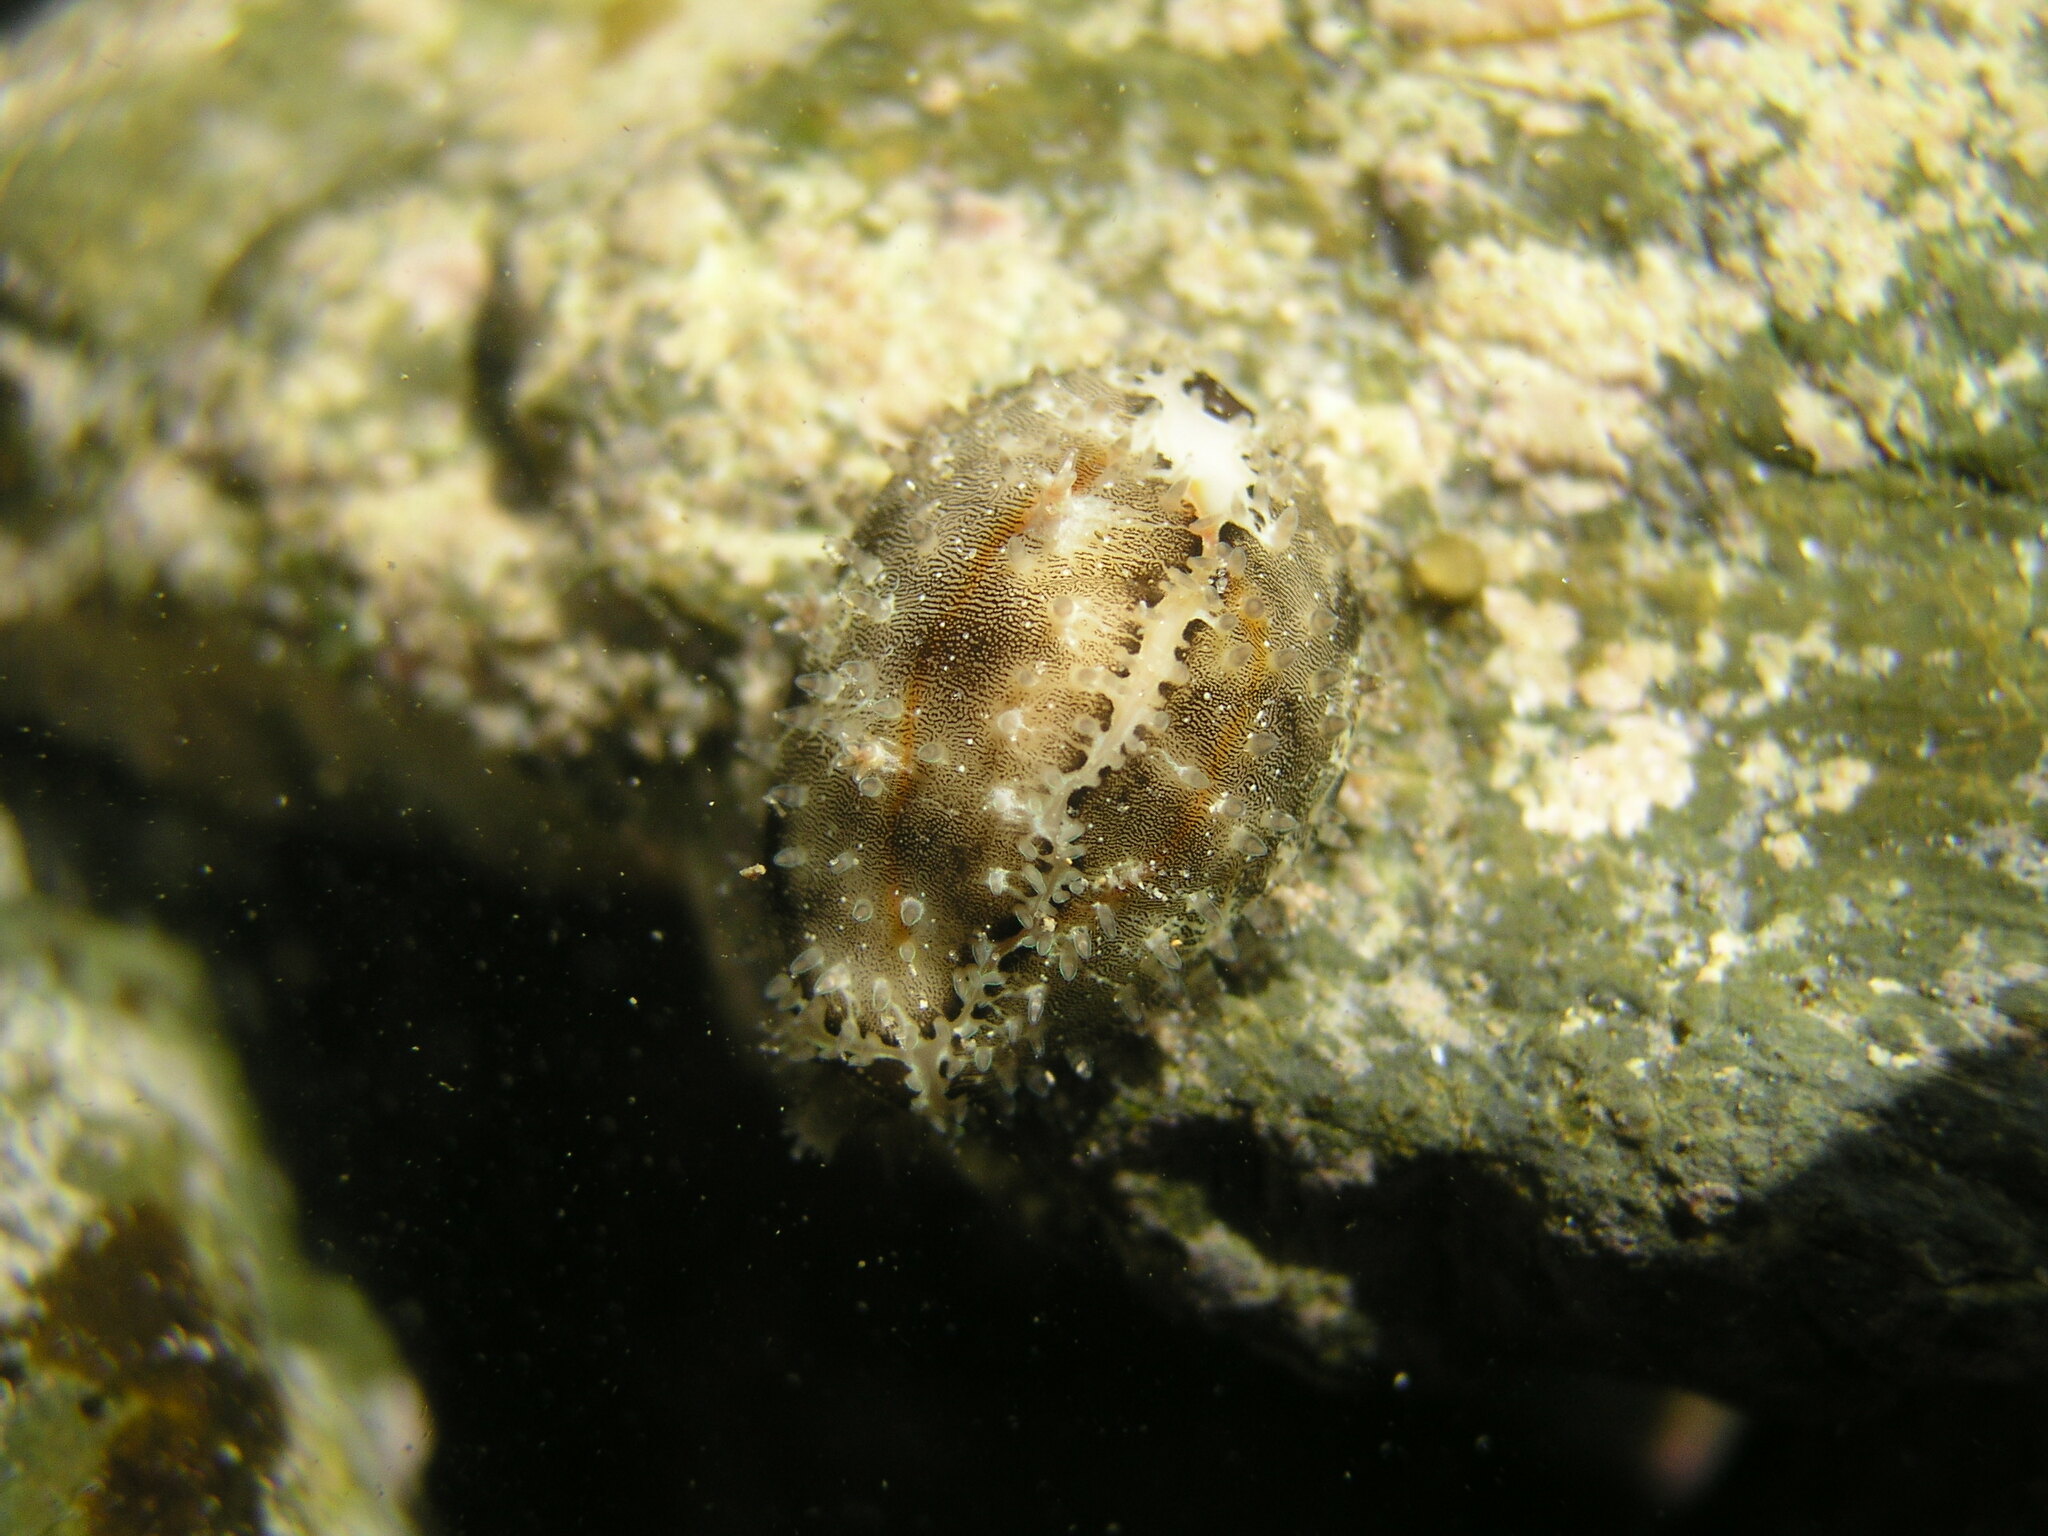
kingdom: Animalia
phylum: Mollusca
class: Gastropoda
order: Littorinimorpha
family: Cypraeidae
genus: Monetaria
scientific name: Monetaria annulus
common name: Ring cowrie
